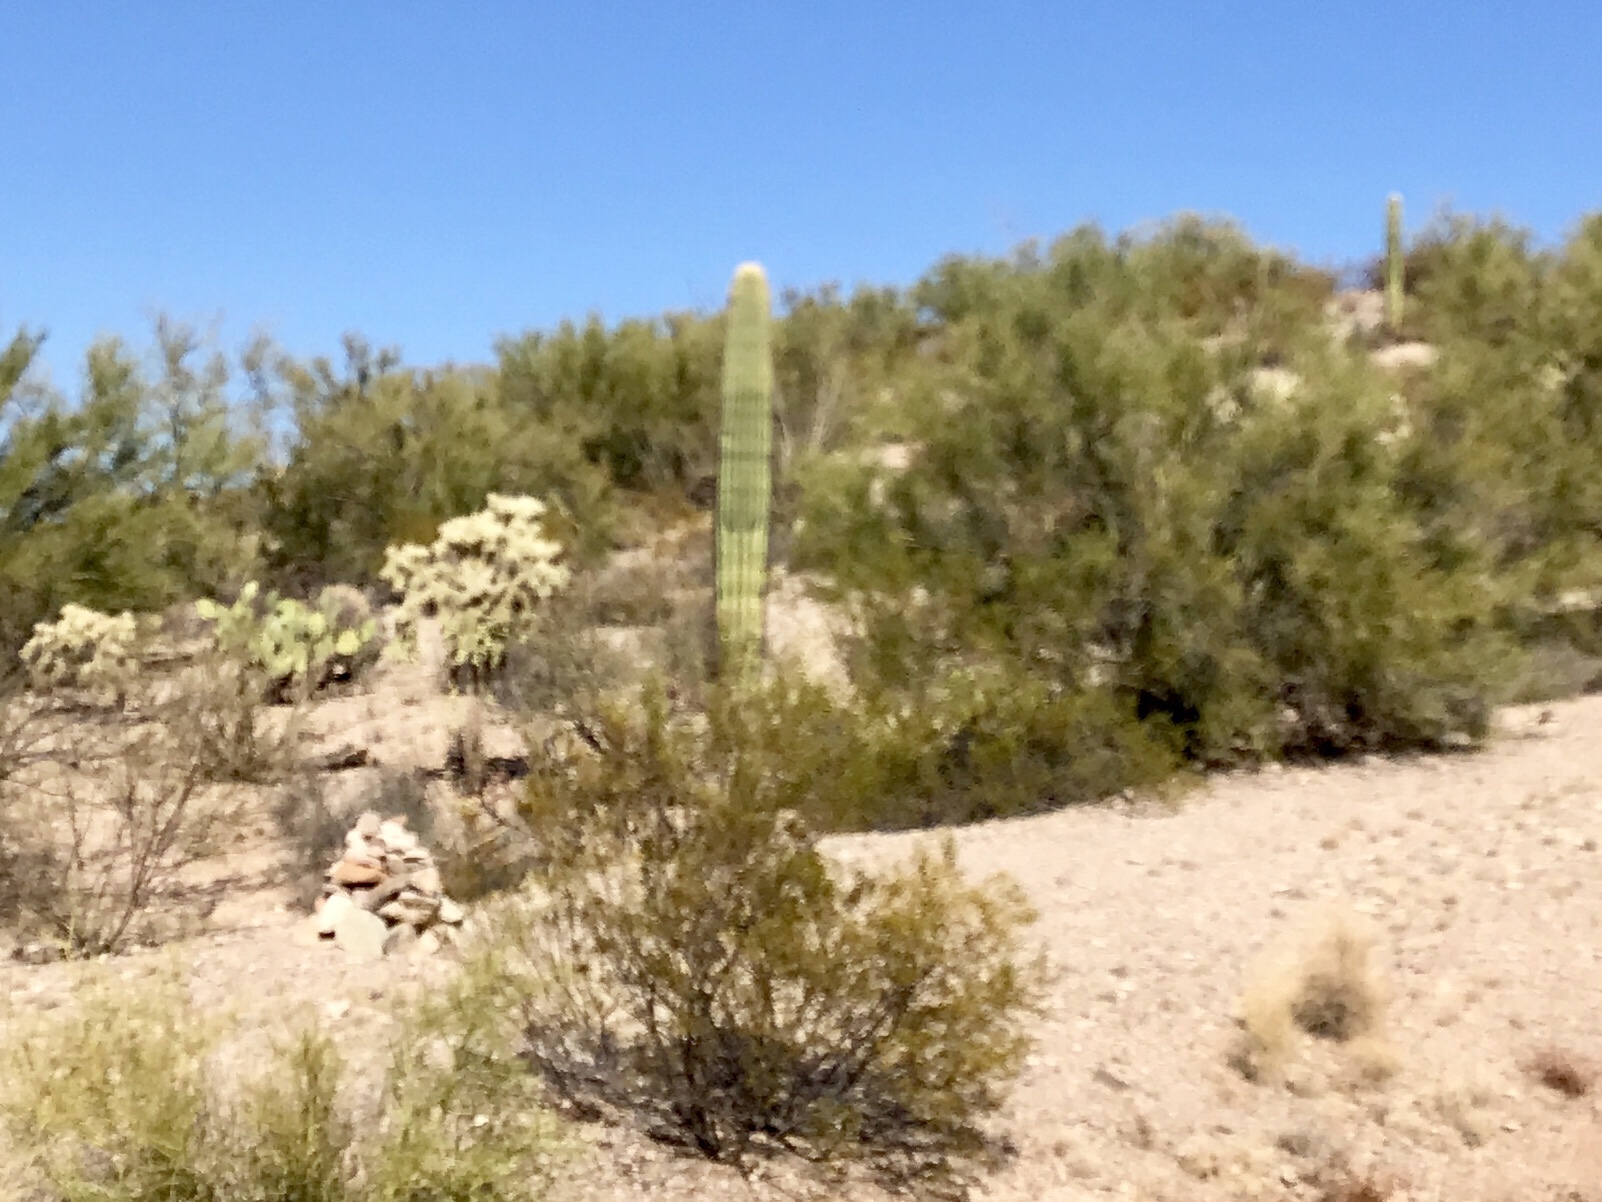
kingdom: Plantae
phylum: Tracheophyta
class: Magnoliopsida
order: Caryophyllales
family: Cactaceae
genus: Carnegiea
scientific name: Carnegiea gigantea
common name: Saguaro
